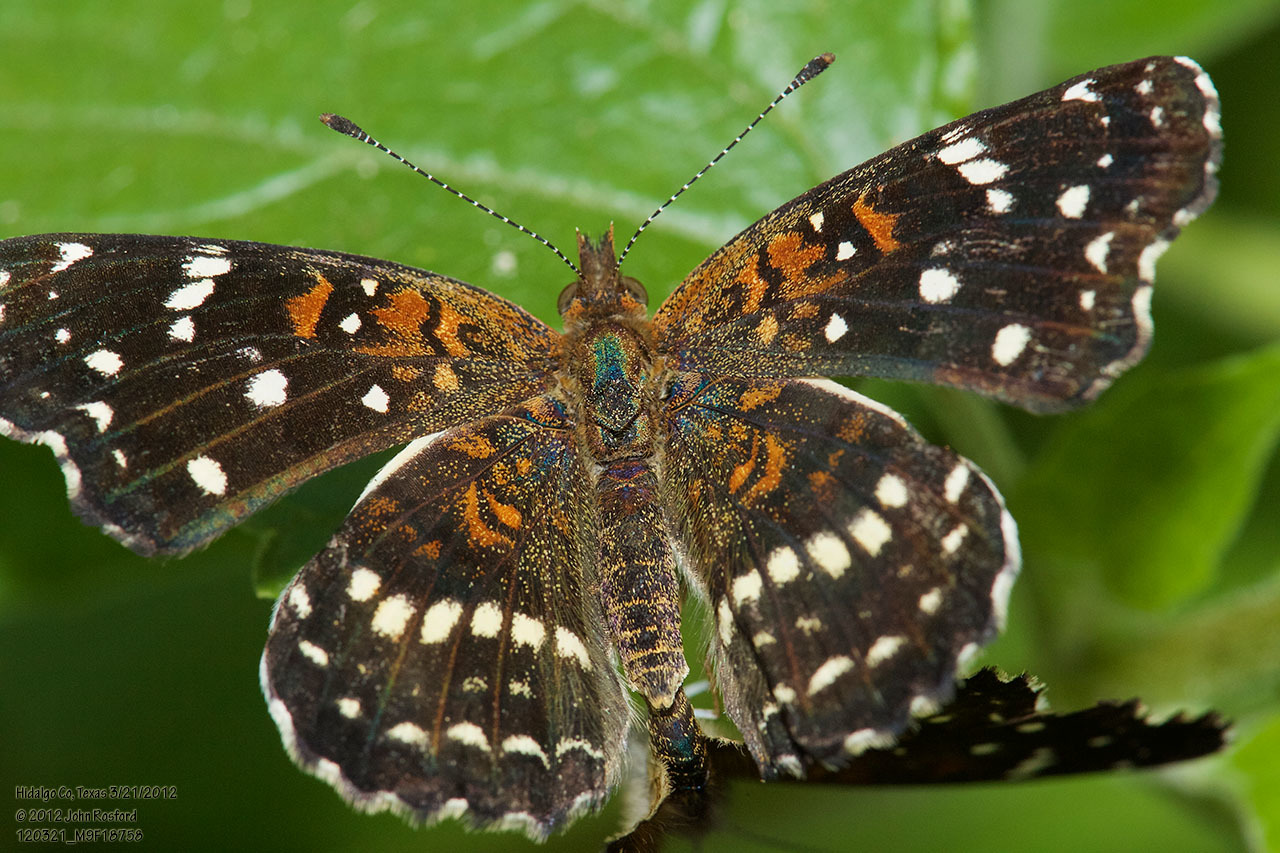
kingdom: Animalia
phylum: Arthropoda
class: Insecta
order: Lepidoptera
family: Nymphalidae
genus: Anthanassa
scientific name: Anthanassa texana
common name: Texan crescent
